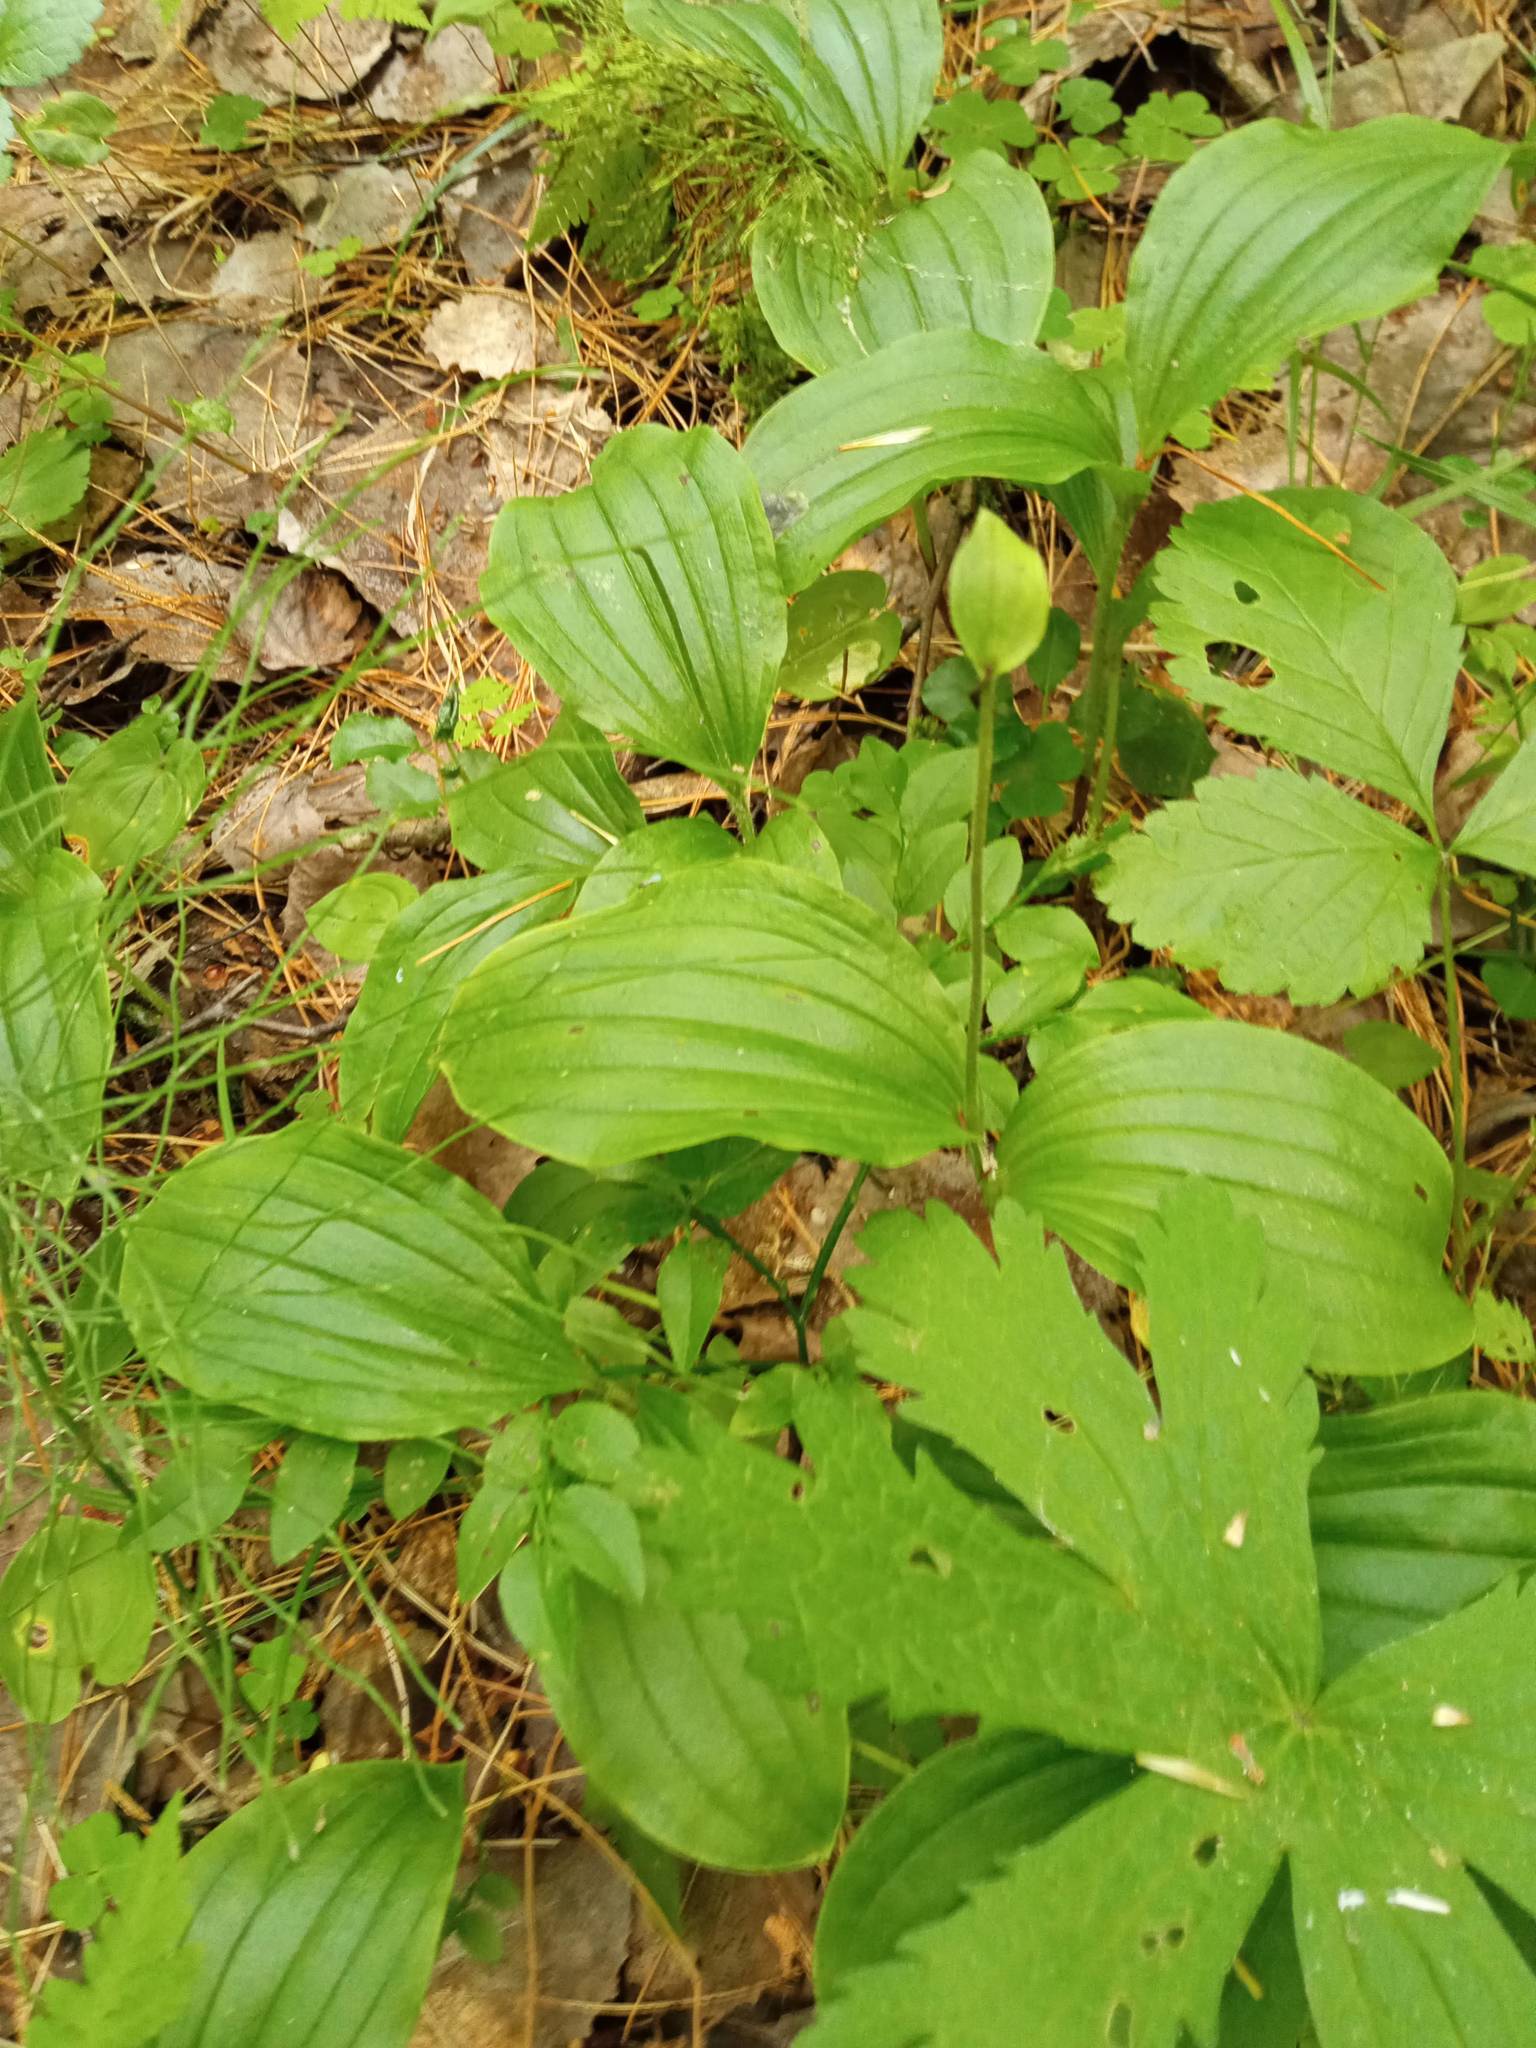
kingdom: Plantae
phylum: Tracheophyta
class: Liliopsida
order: Asparagales
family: Orchidaceae
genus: Cypripedium
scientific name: Cypripedium guttatum
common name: Pink lady slipper
